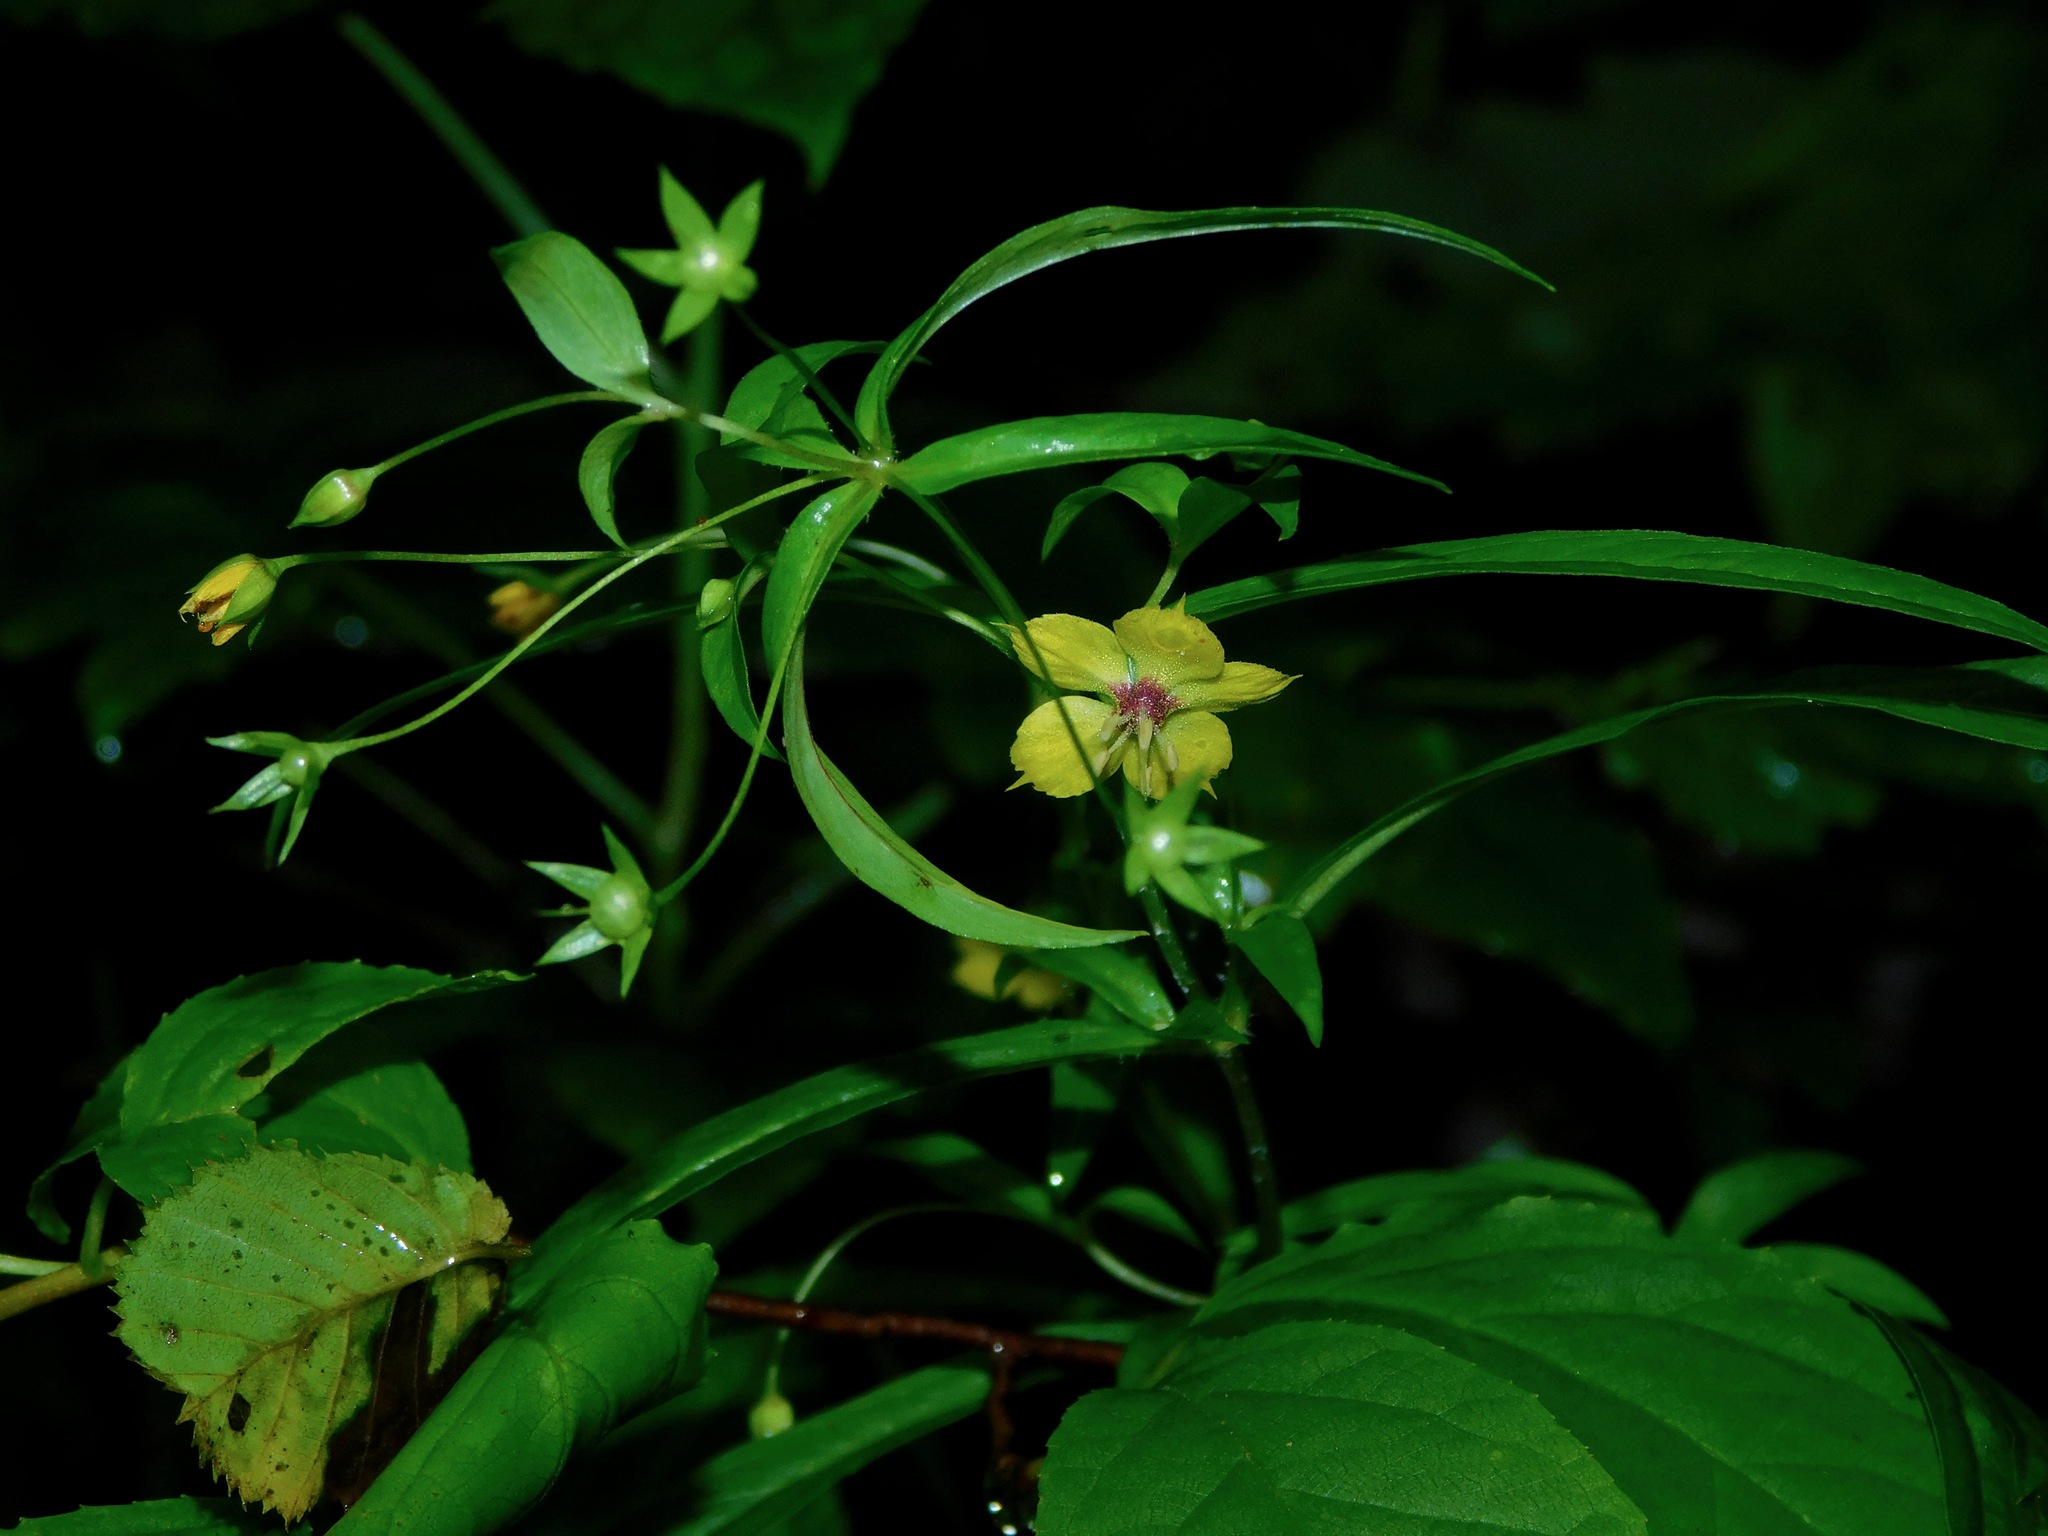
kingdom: Plantae
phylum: Tracheophyta
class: Magnoliopsida
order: Ericales
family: Primulaceae
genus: Lysimachia
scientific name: Lysimachia lanceolata
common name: Lance-leaved loosestrife
